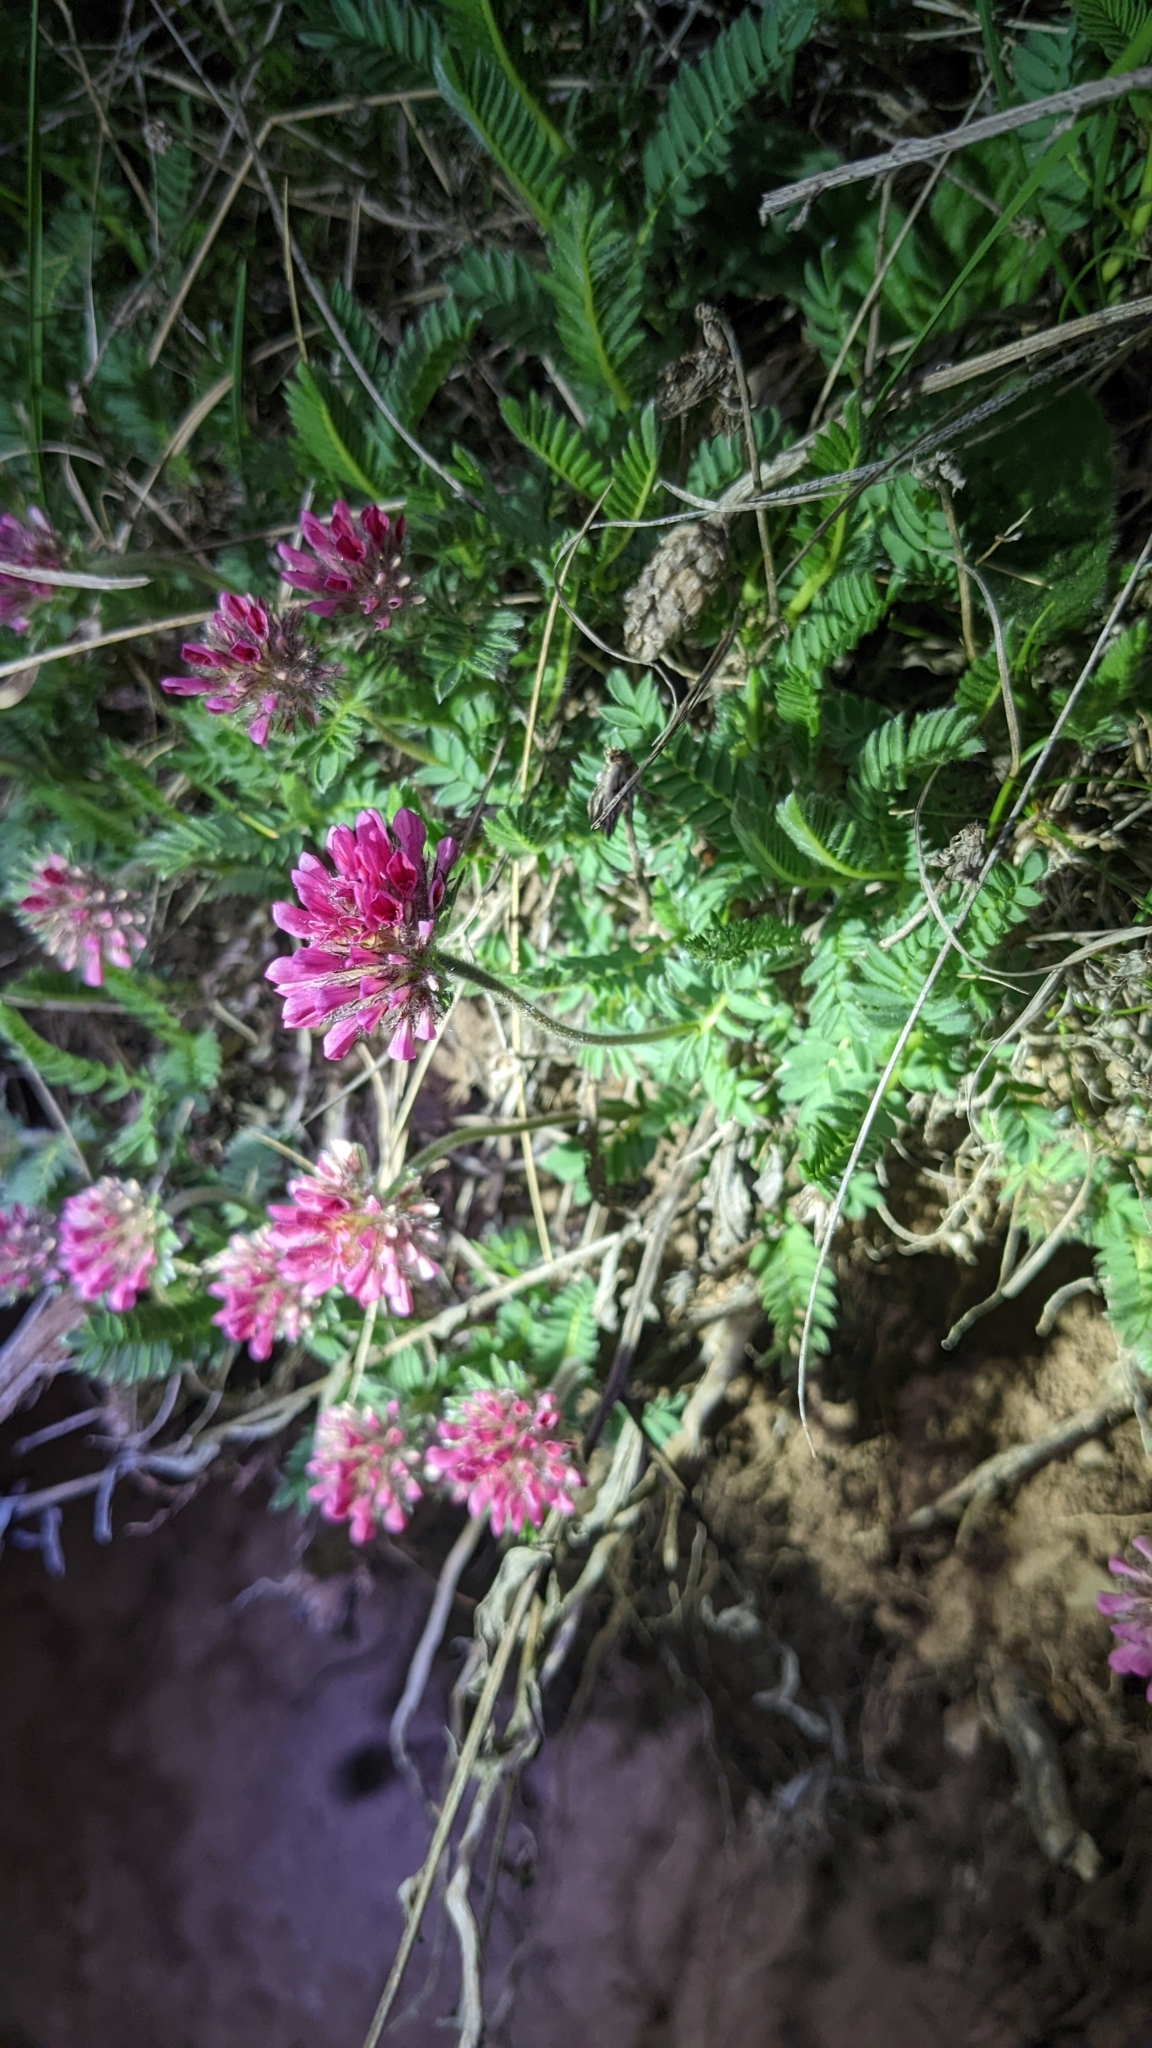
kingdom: Plantae
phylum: Tracheophyta
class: Magnoliopsida
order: Fabales
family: Fabaceae
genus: Anthyllis
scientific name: Anthyllis montana
